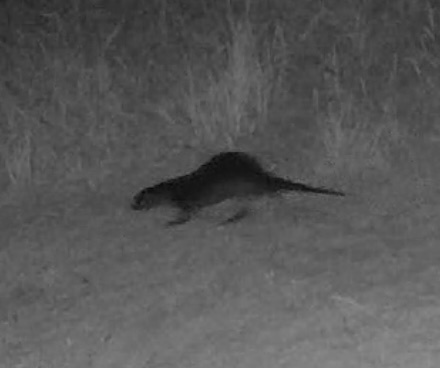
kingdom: Animalia
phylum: Chordata
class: Mammalia
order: Carnivora
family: Mustelidae
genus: Lontra
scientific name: Lontra canadensis
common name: North american river otter
